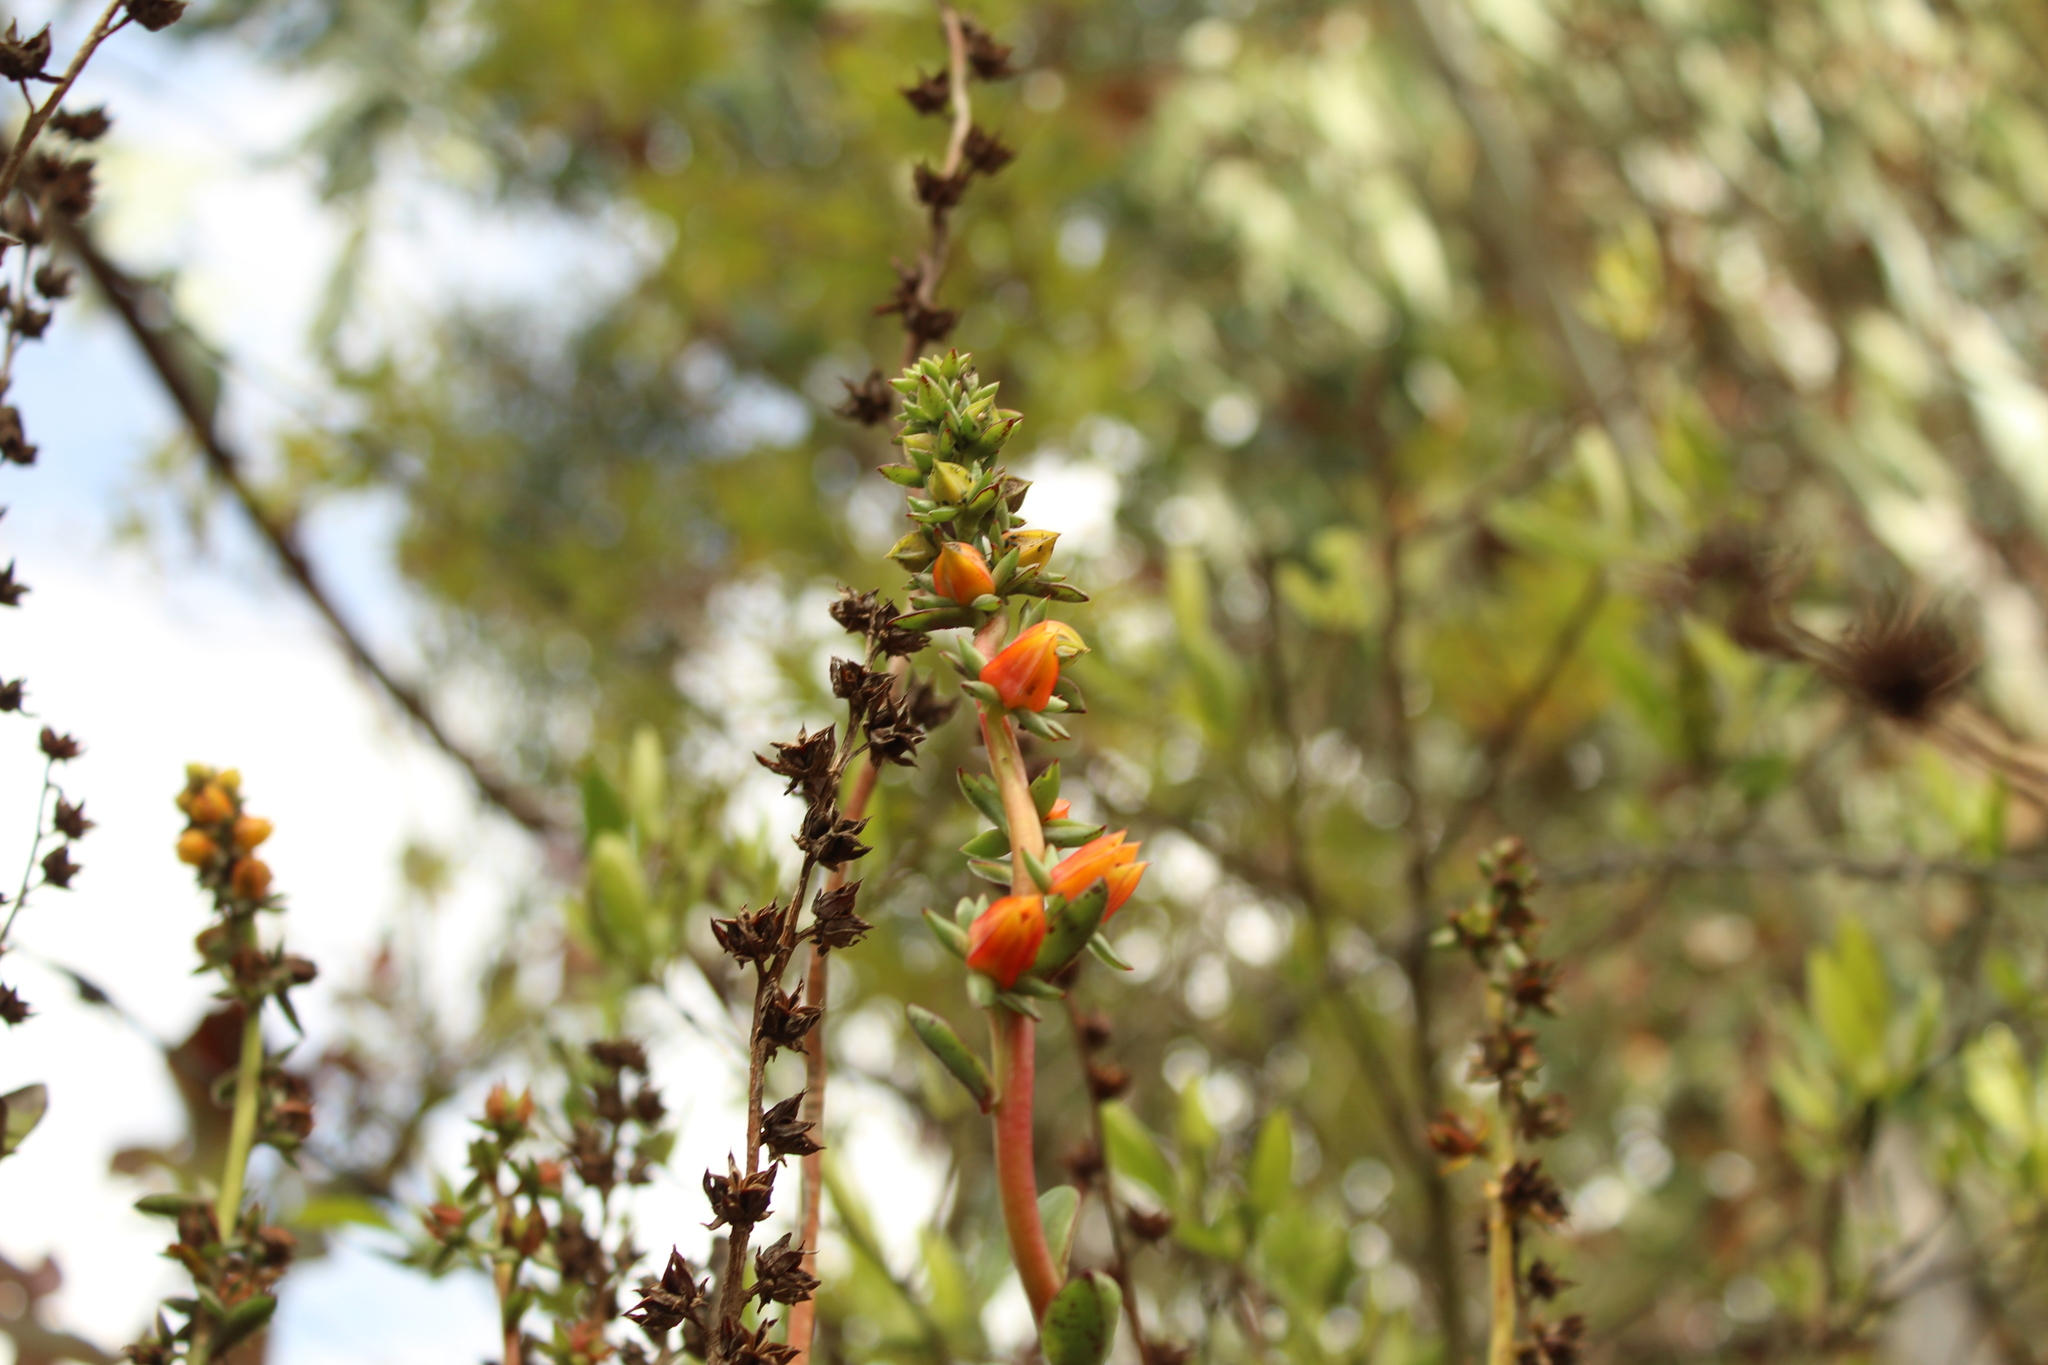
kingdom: Plantae
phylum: Tracheophyta
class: Magnoliopsida
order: Saxifragales
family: Crassulaceae
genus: Echeveria
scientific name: Echeveria bicolor
